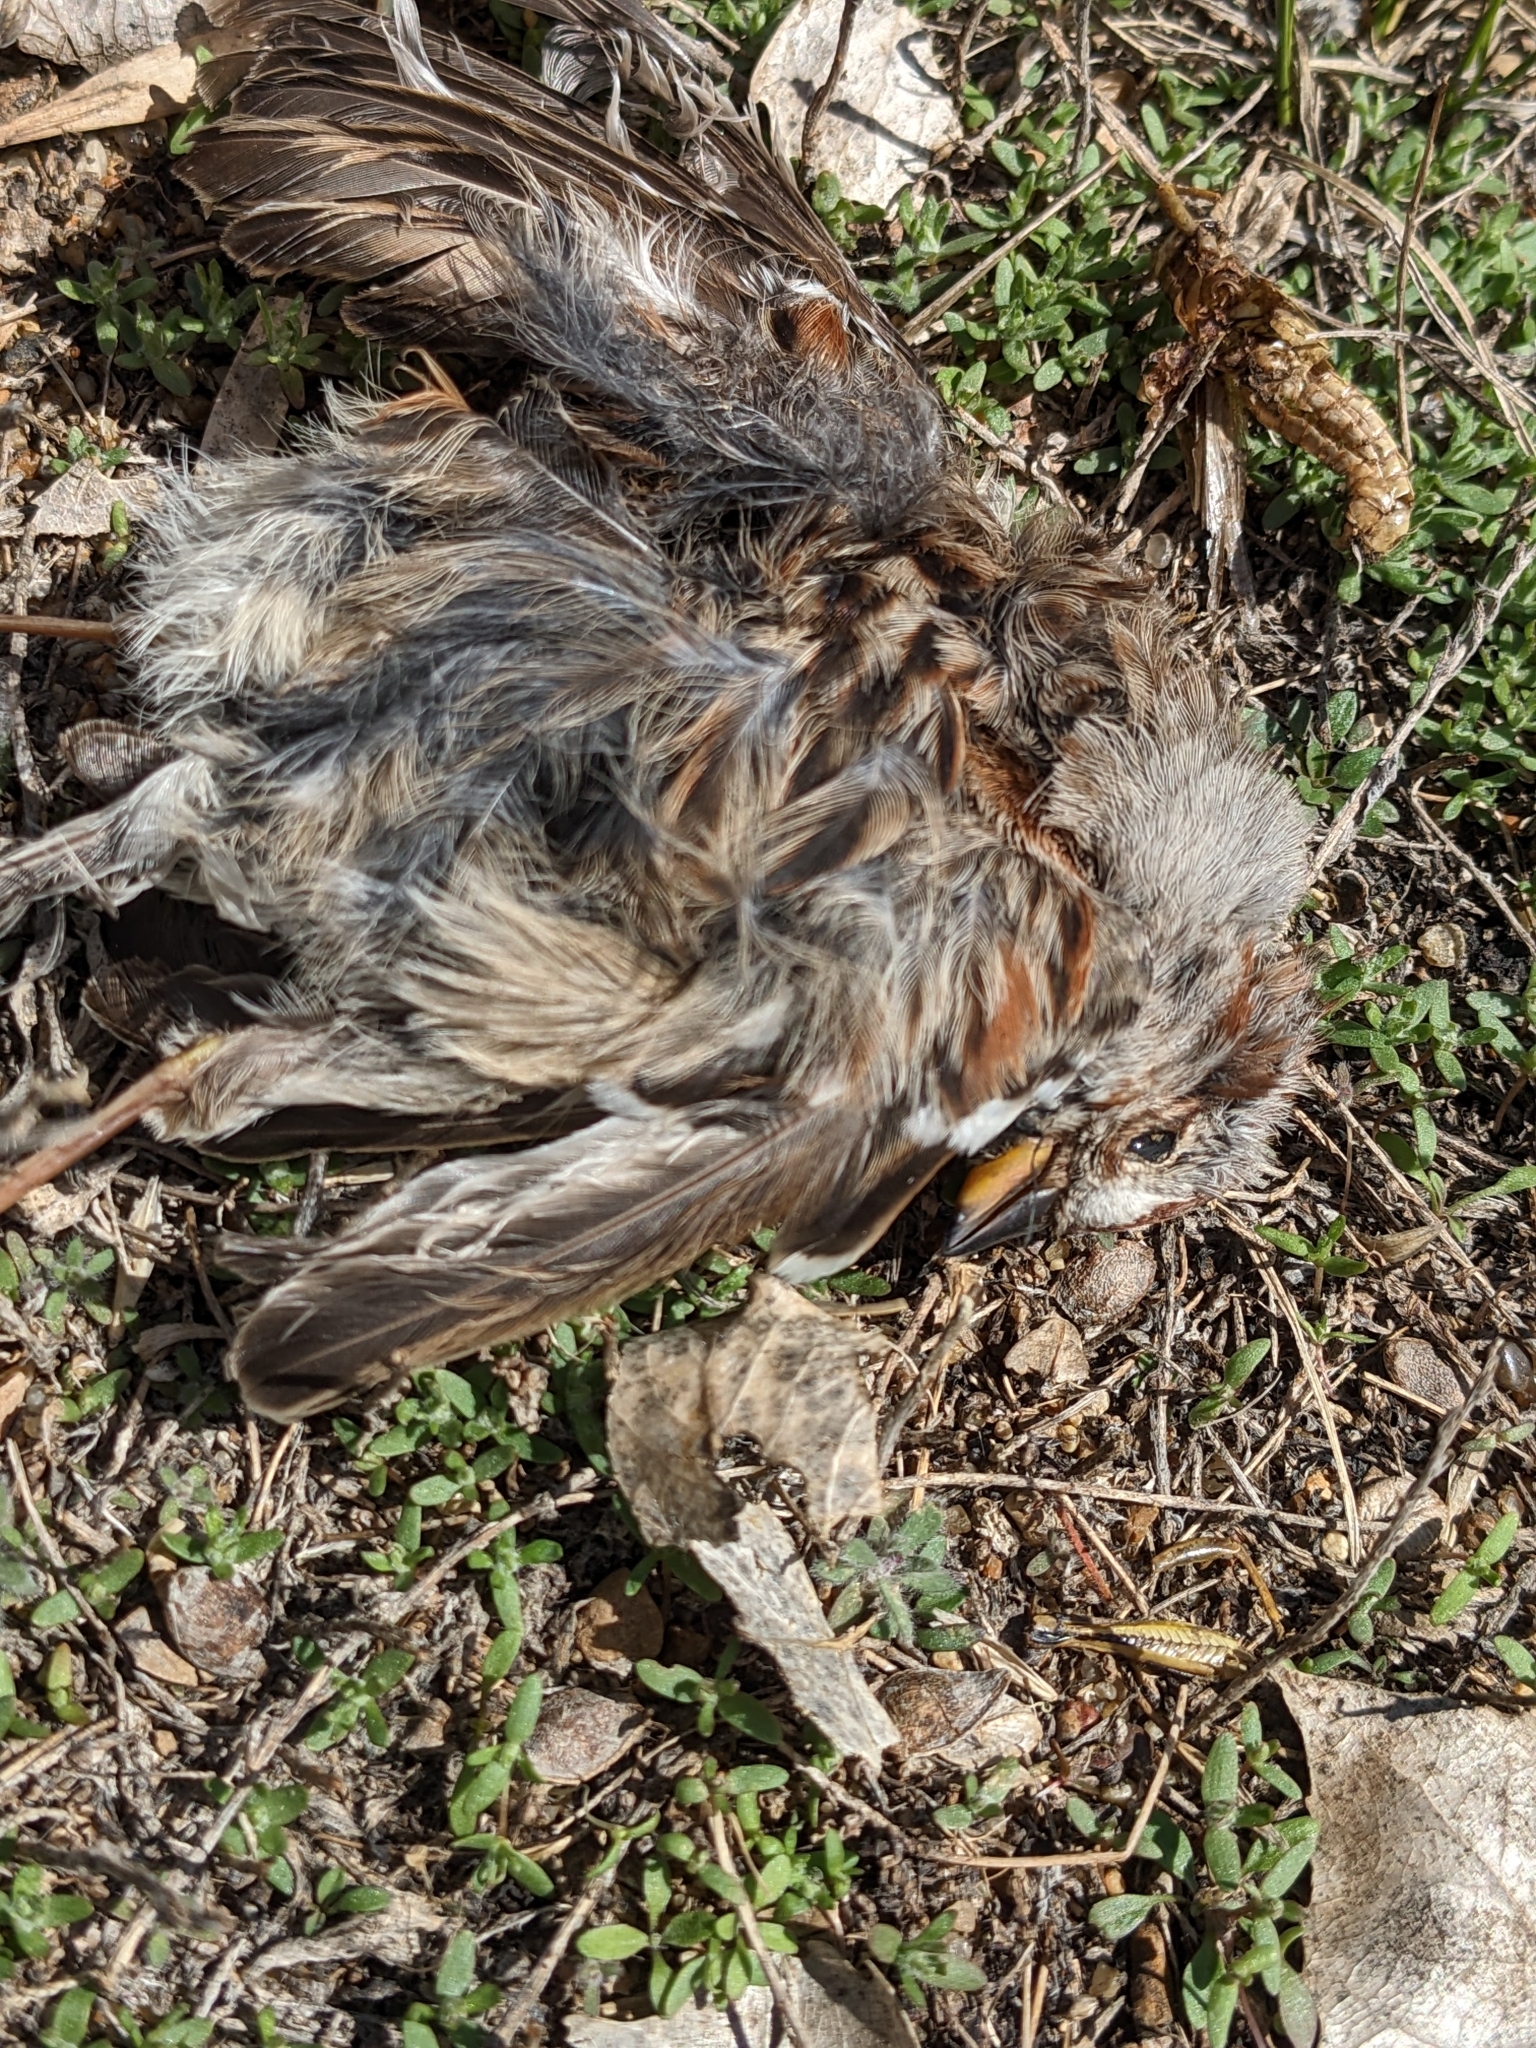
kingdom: Animalia
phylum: Chordata
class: Aves
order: Passeriformes
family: Passerellidae
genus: Spizelloides
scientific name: Spizelloides arborea
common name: American tree sparrow
